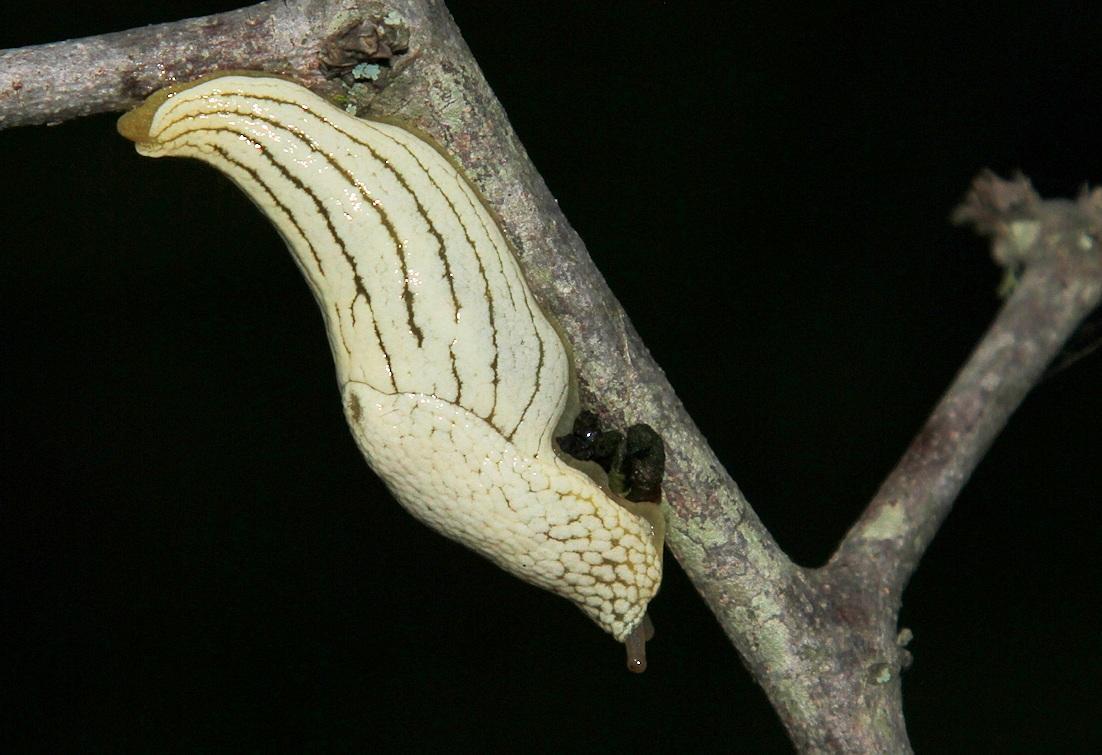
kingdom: Animalia
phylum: Mollusca
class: Gastropoda
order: Stylommatophora
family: Urocyclidae
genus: Elisolimax
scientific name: Elisolimax flavescens
